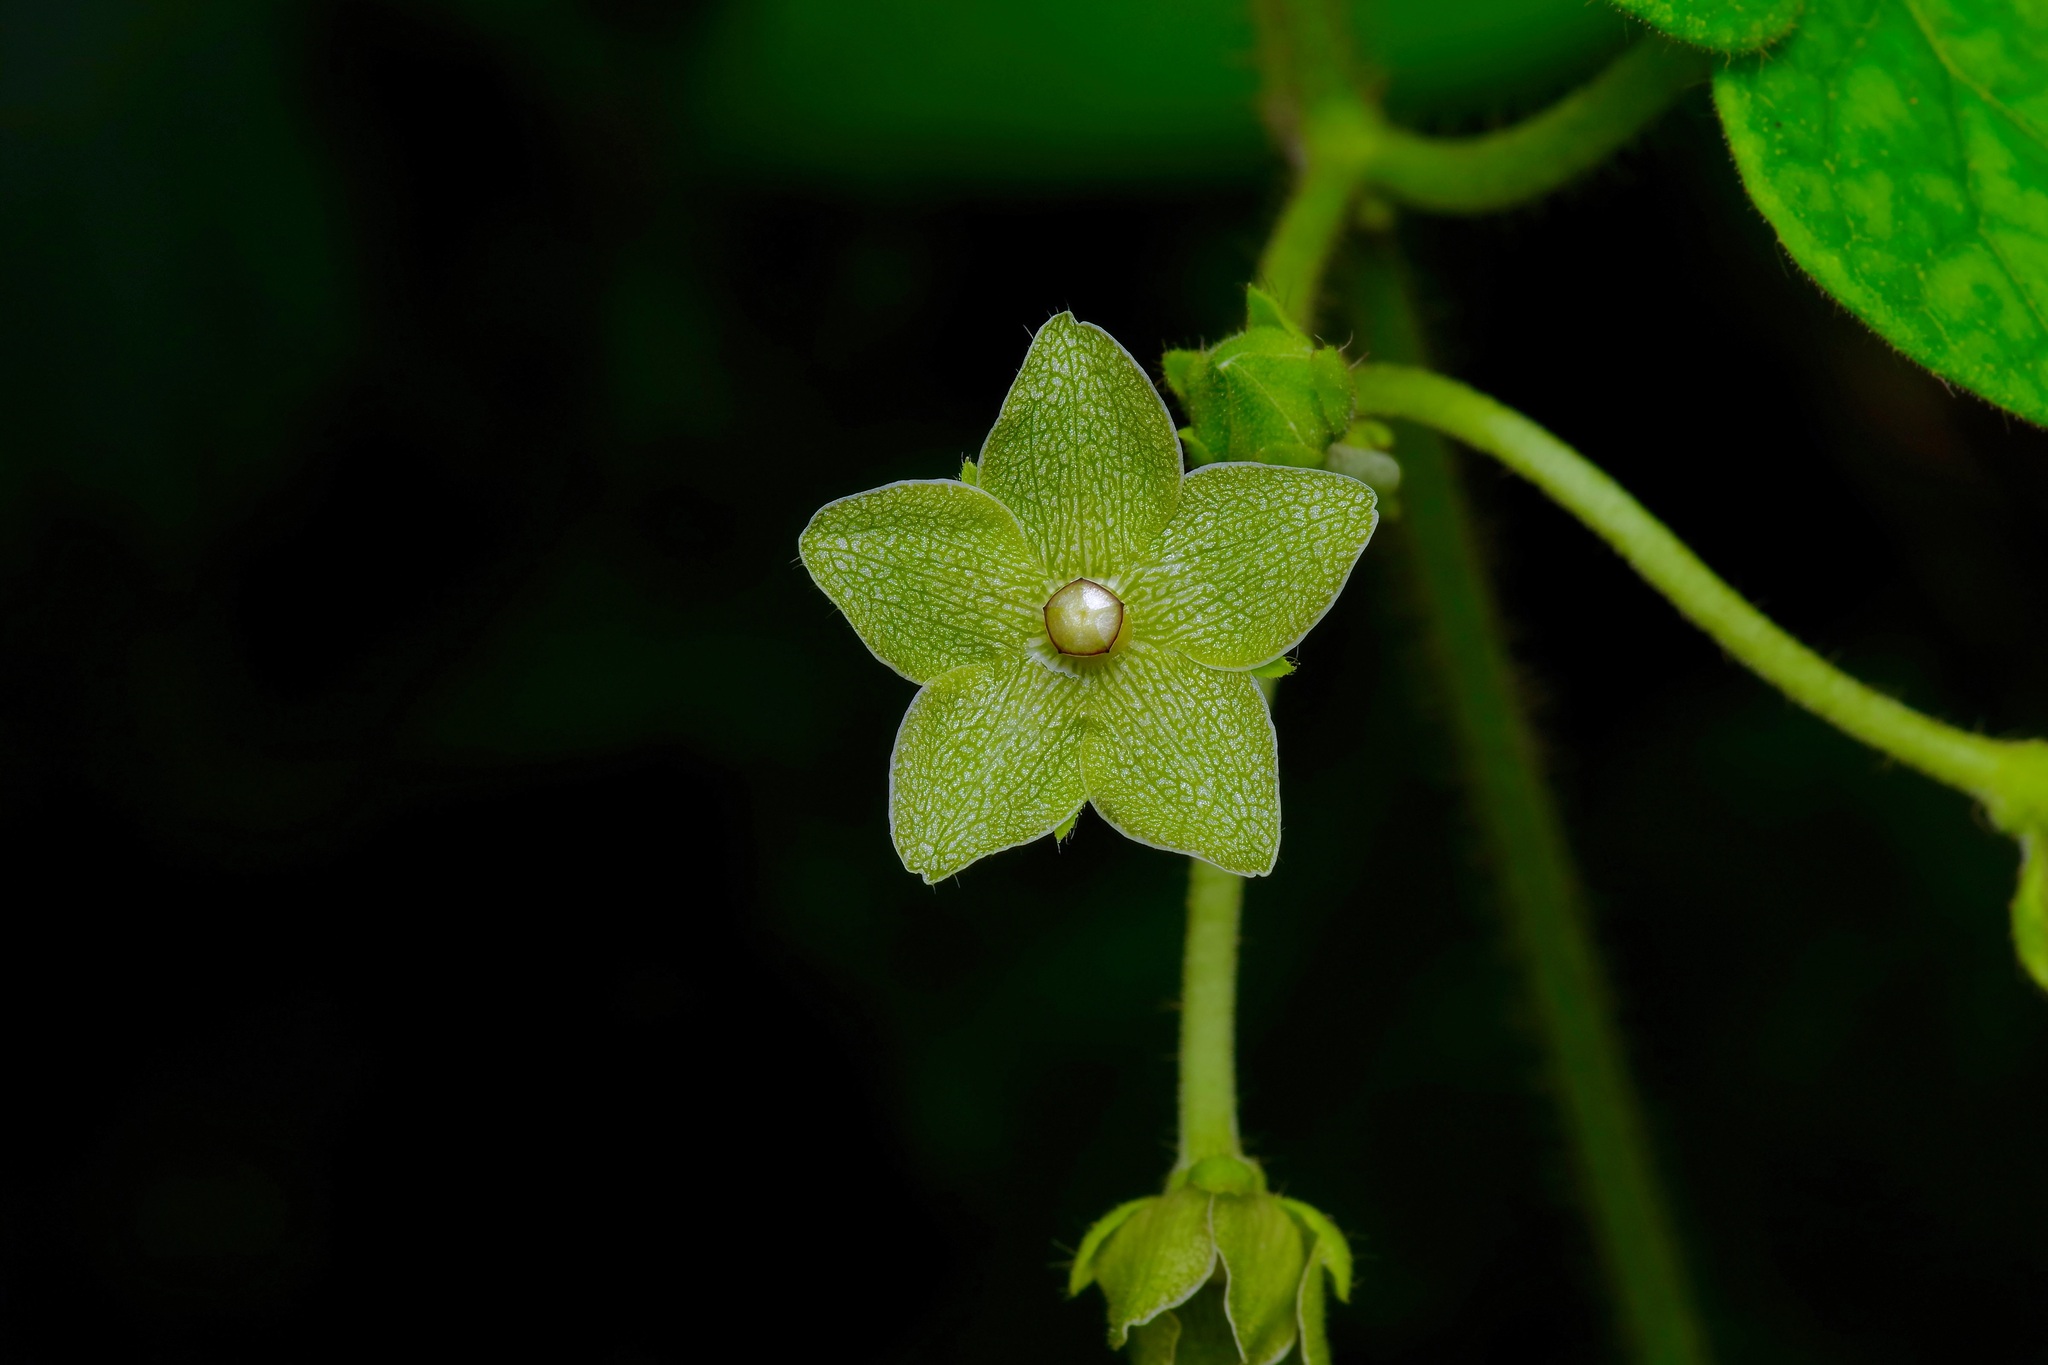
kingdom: Plantae
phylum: Tracheophyta
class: Magnoliopsida
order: Gentianales
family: Apocynaceae
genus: Dictyanthus
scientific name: Dictyanthus reticulatus
